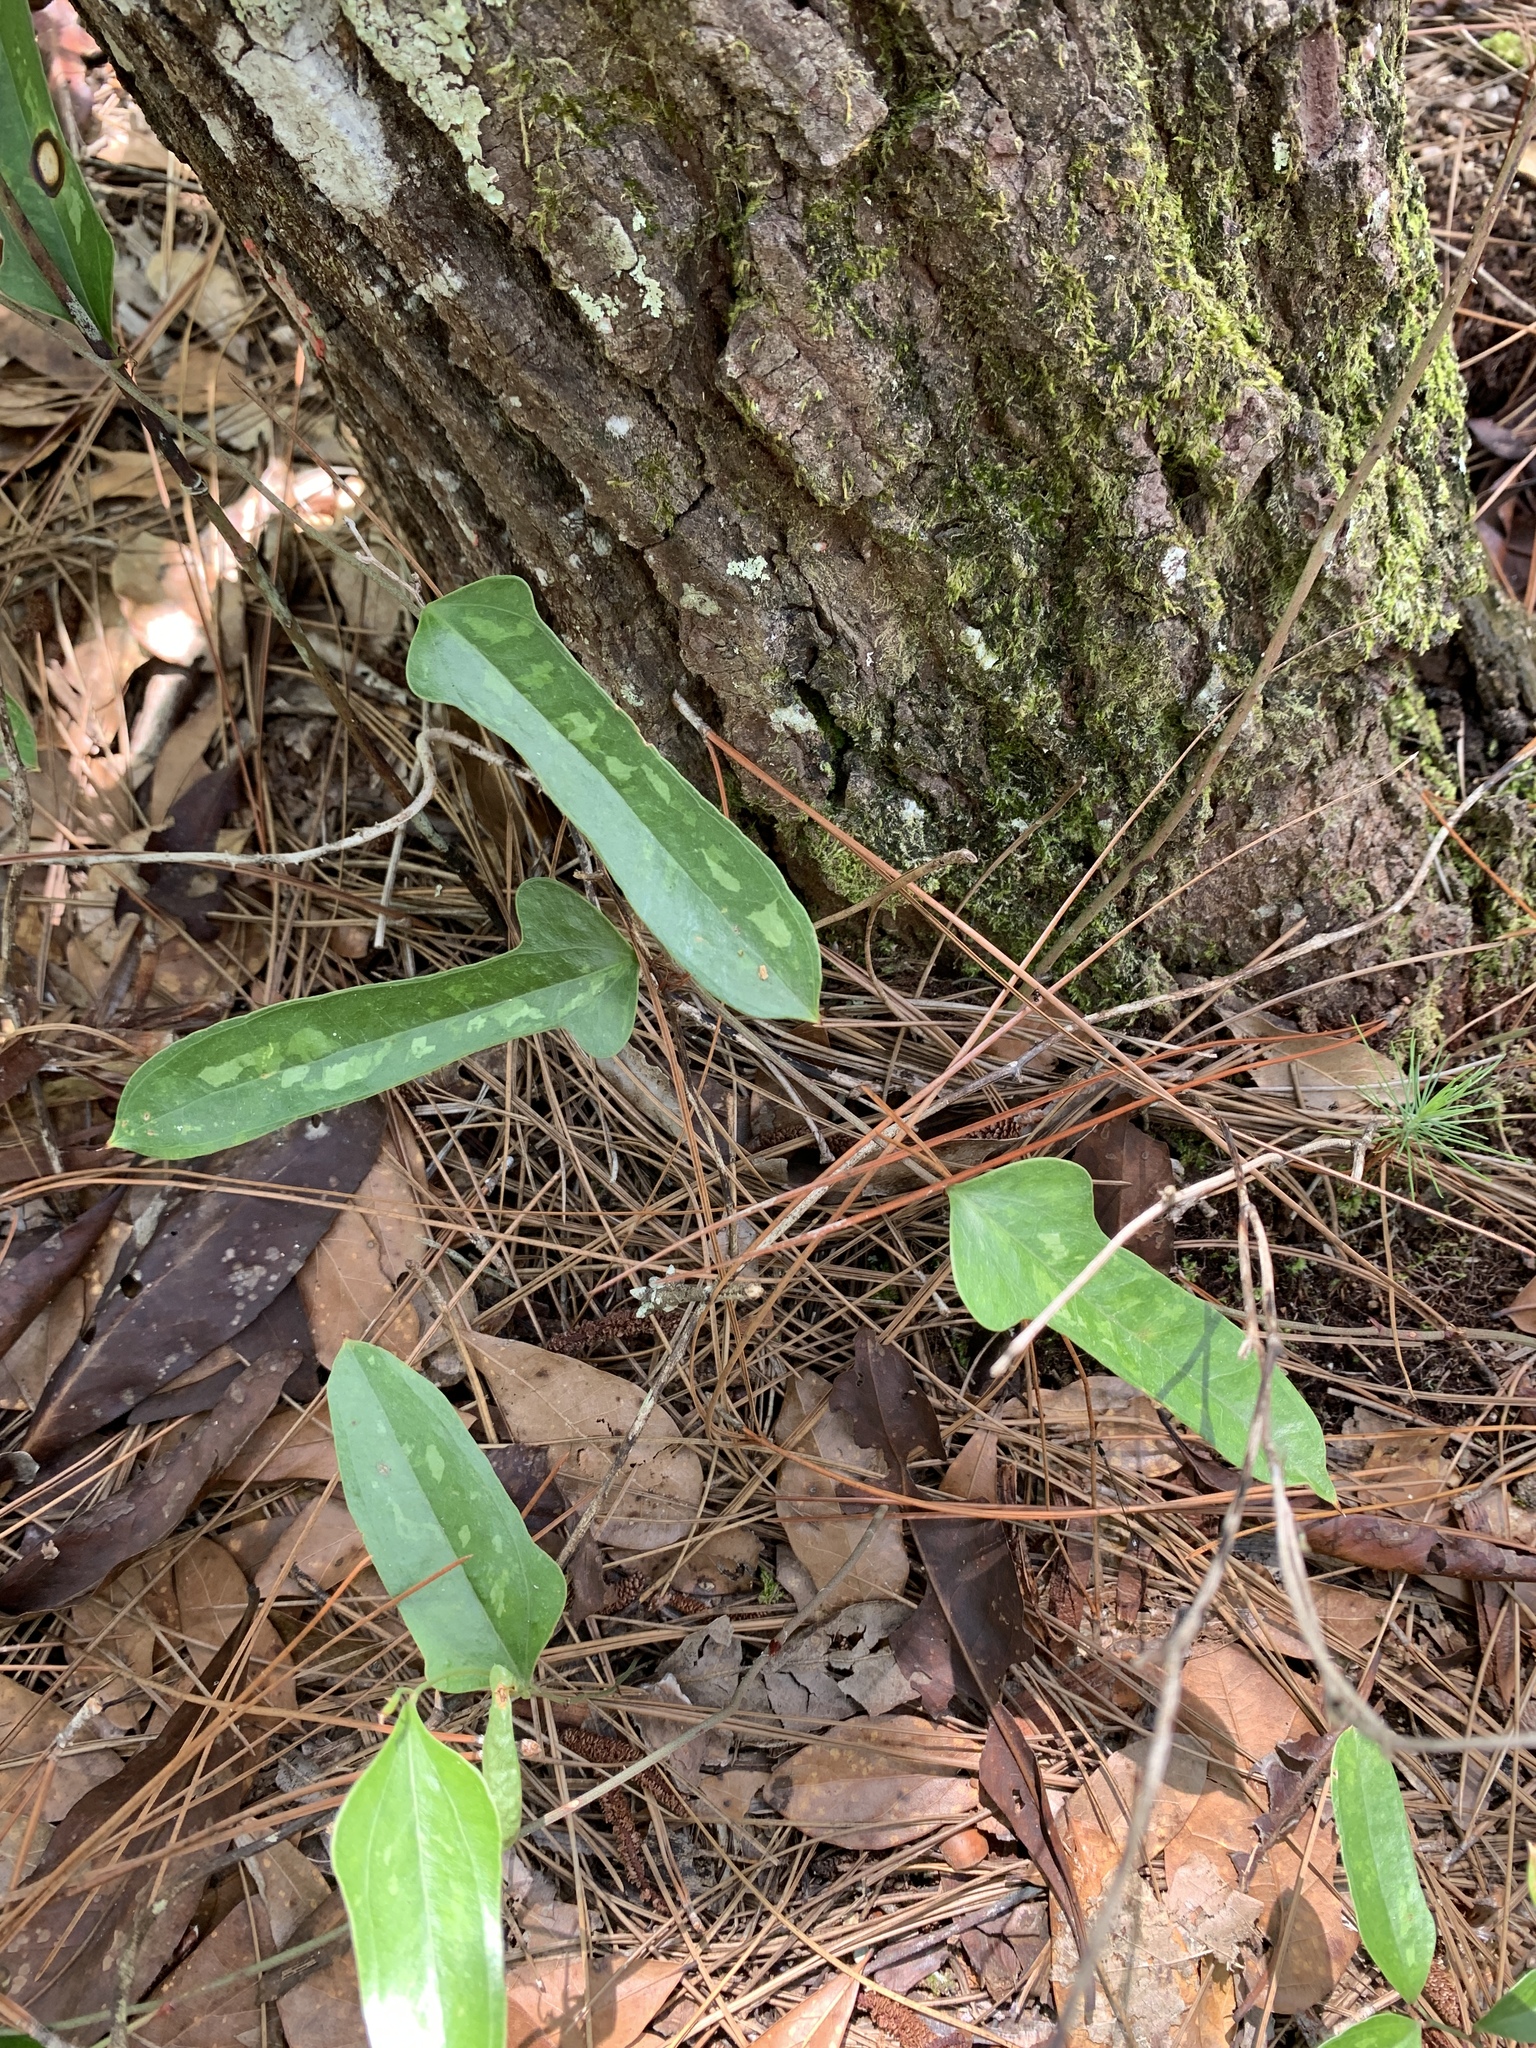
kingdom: Plantae
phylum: Tracheophyta
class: Liliopsida
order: Liliales
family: Smilacaceae
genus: Smilax
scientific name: Smilax auriculata
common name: Wild bamboo
